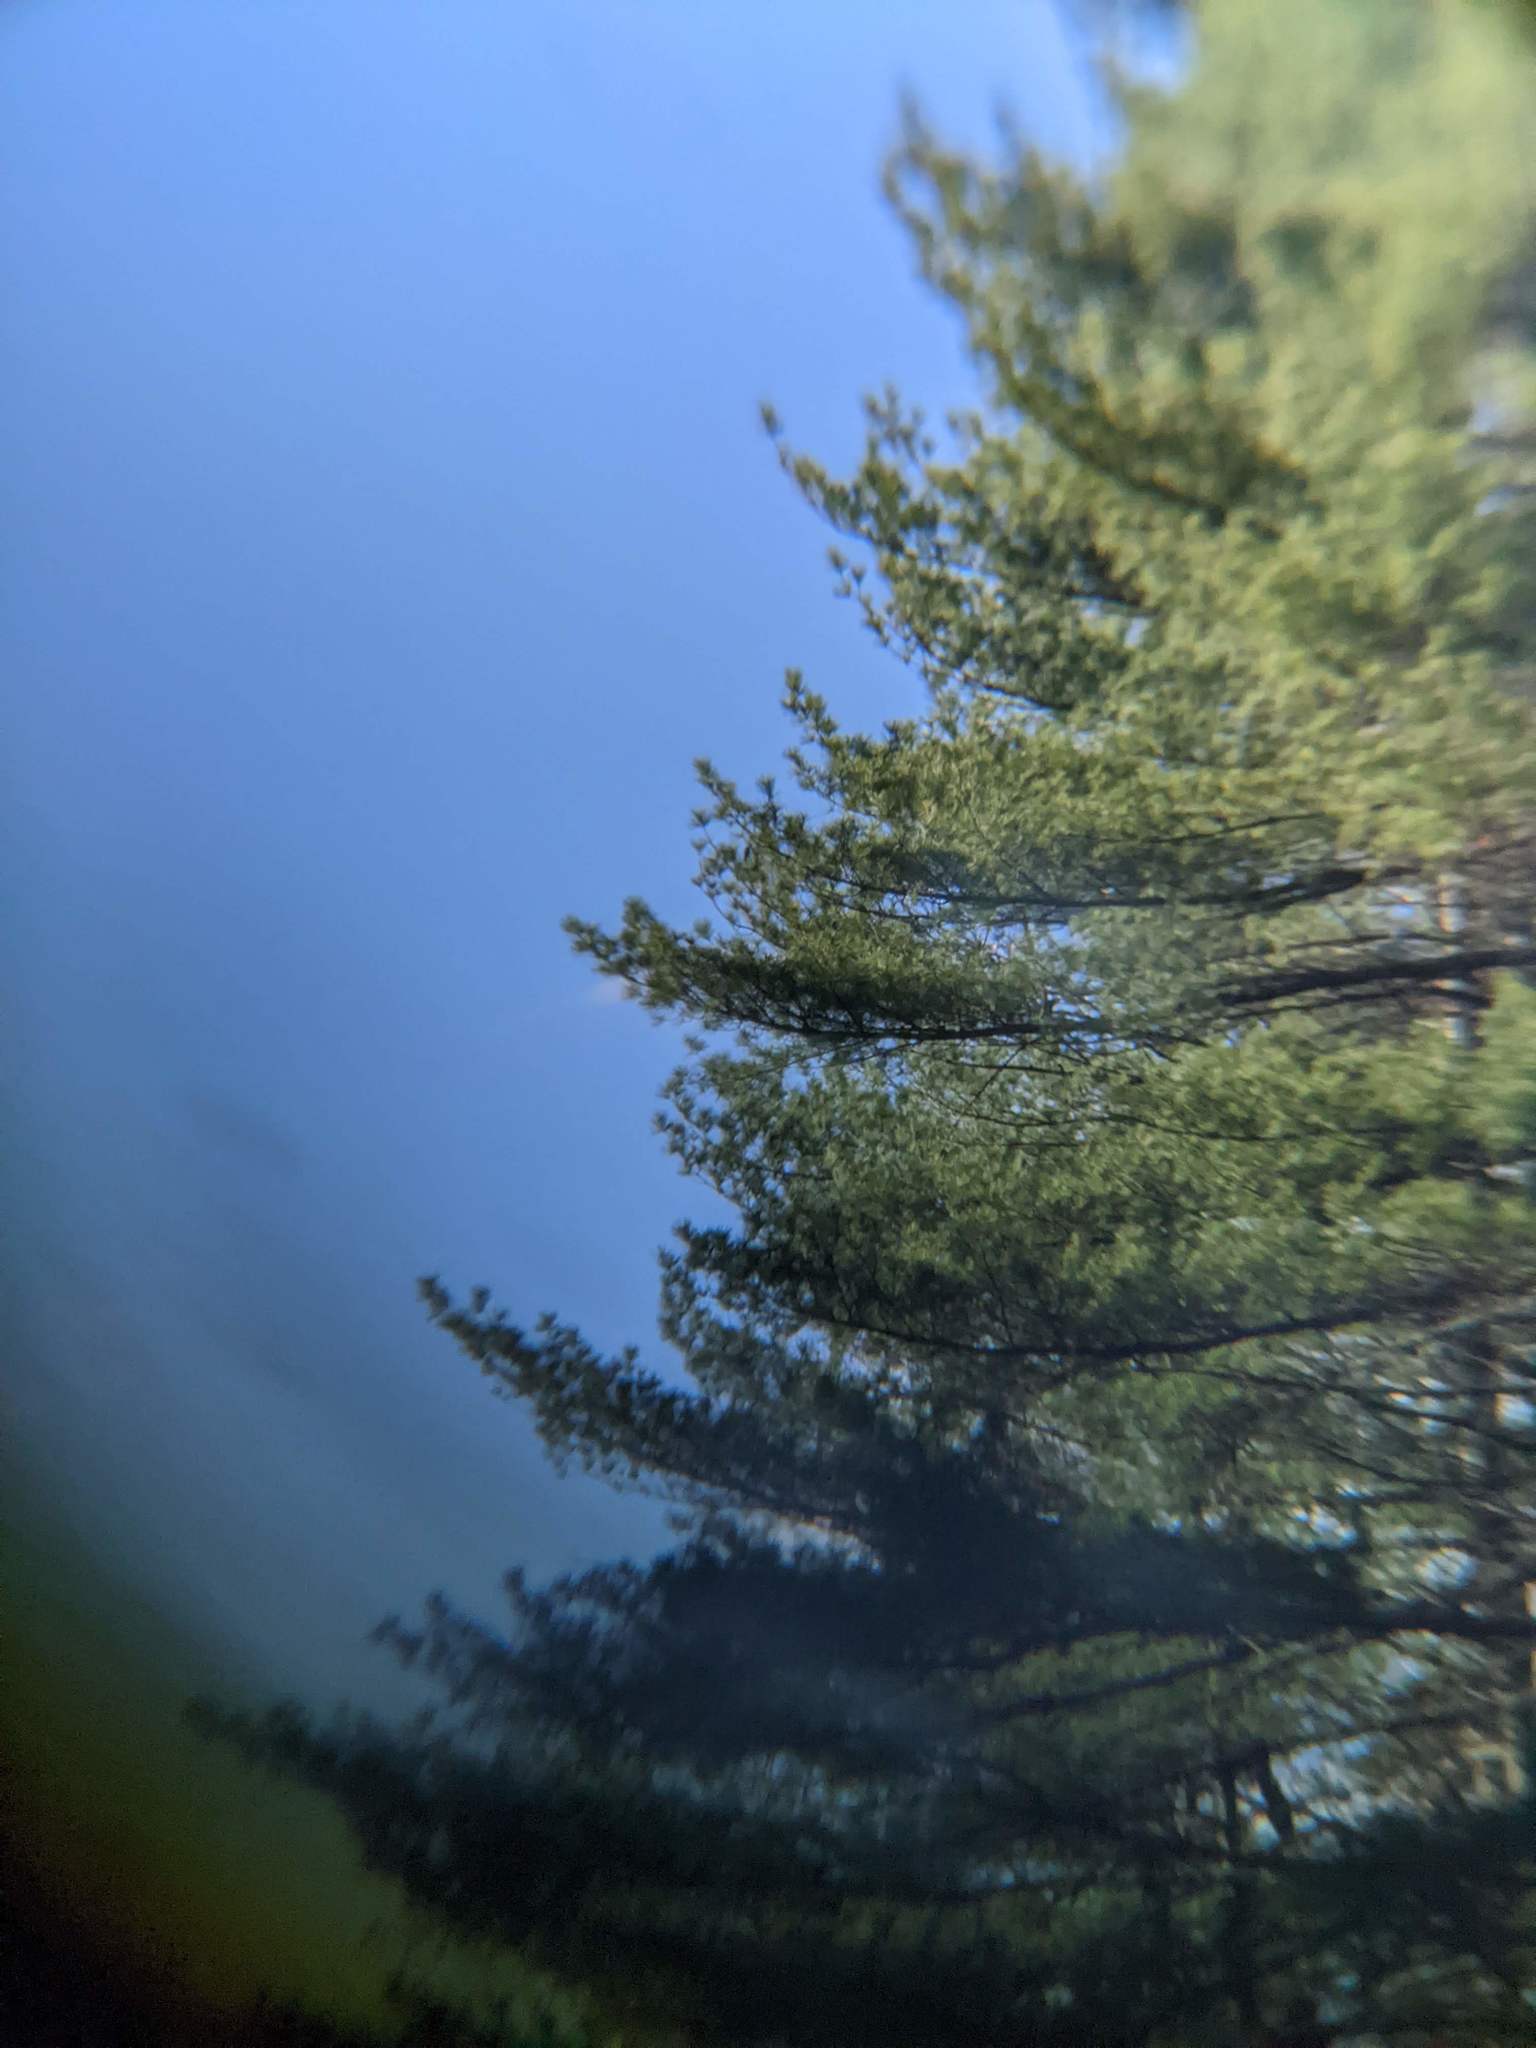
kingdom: Plantae
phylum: Tracheophyta
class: Pinopsida
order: Pinales
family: Pinaceae
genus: Pinus
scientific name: Pinus strobus
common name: Weymouth pine
